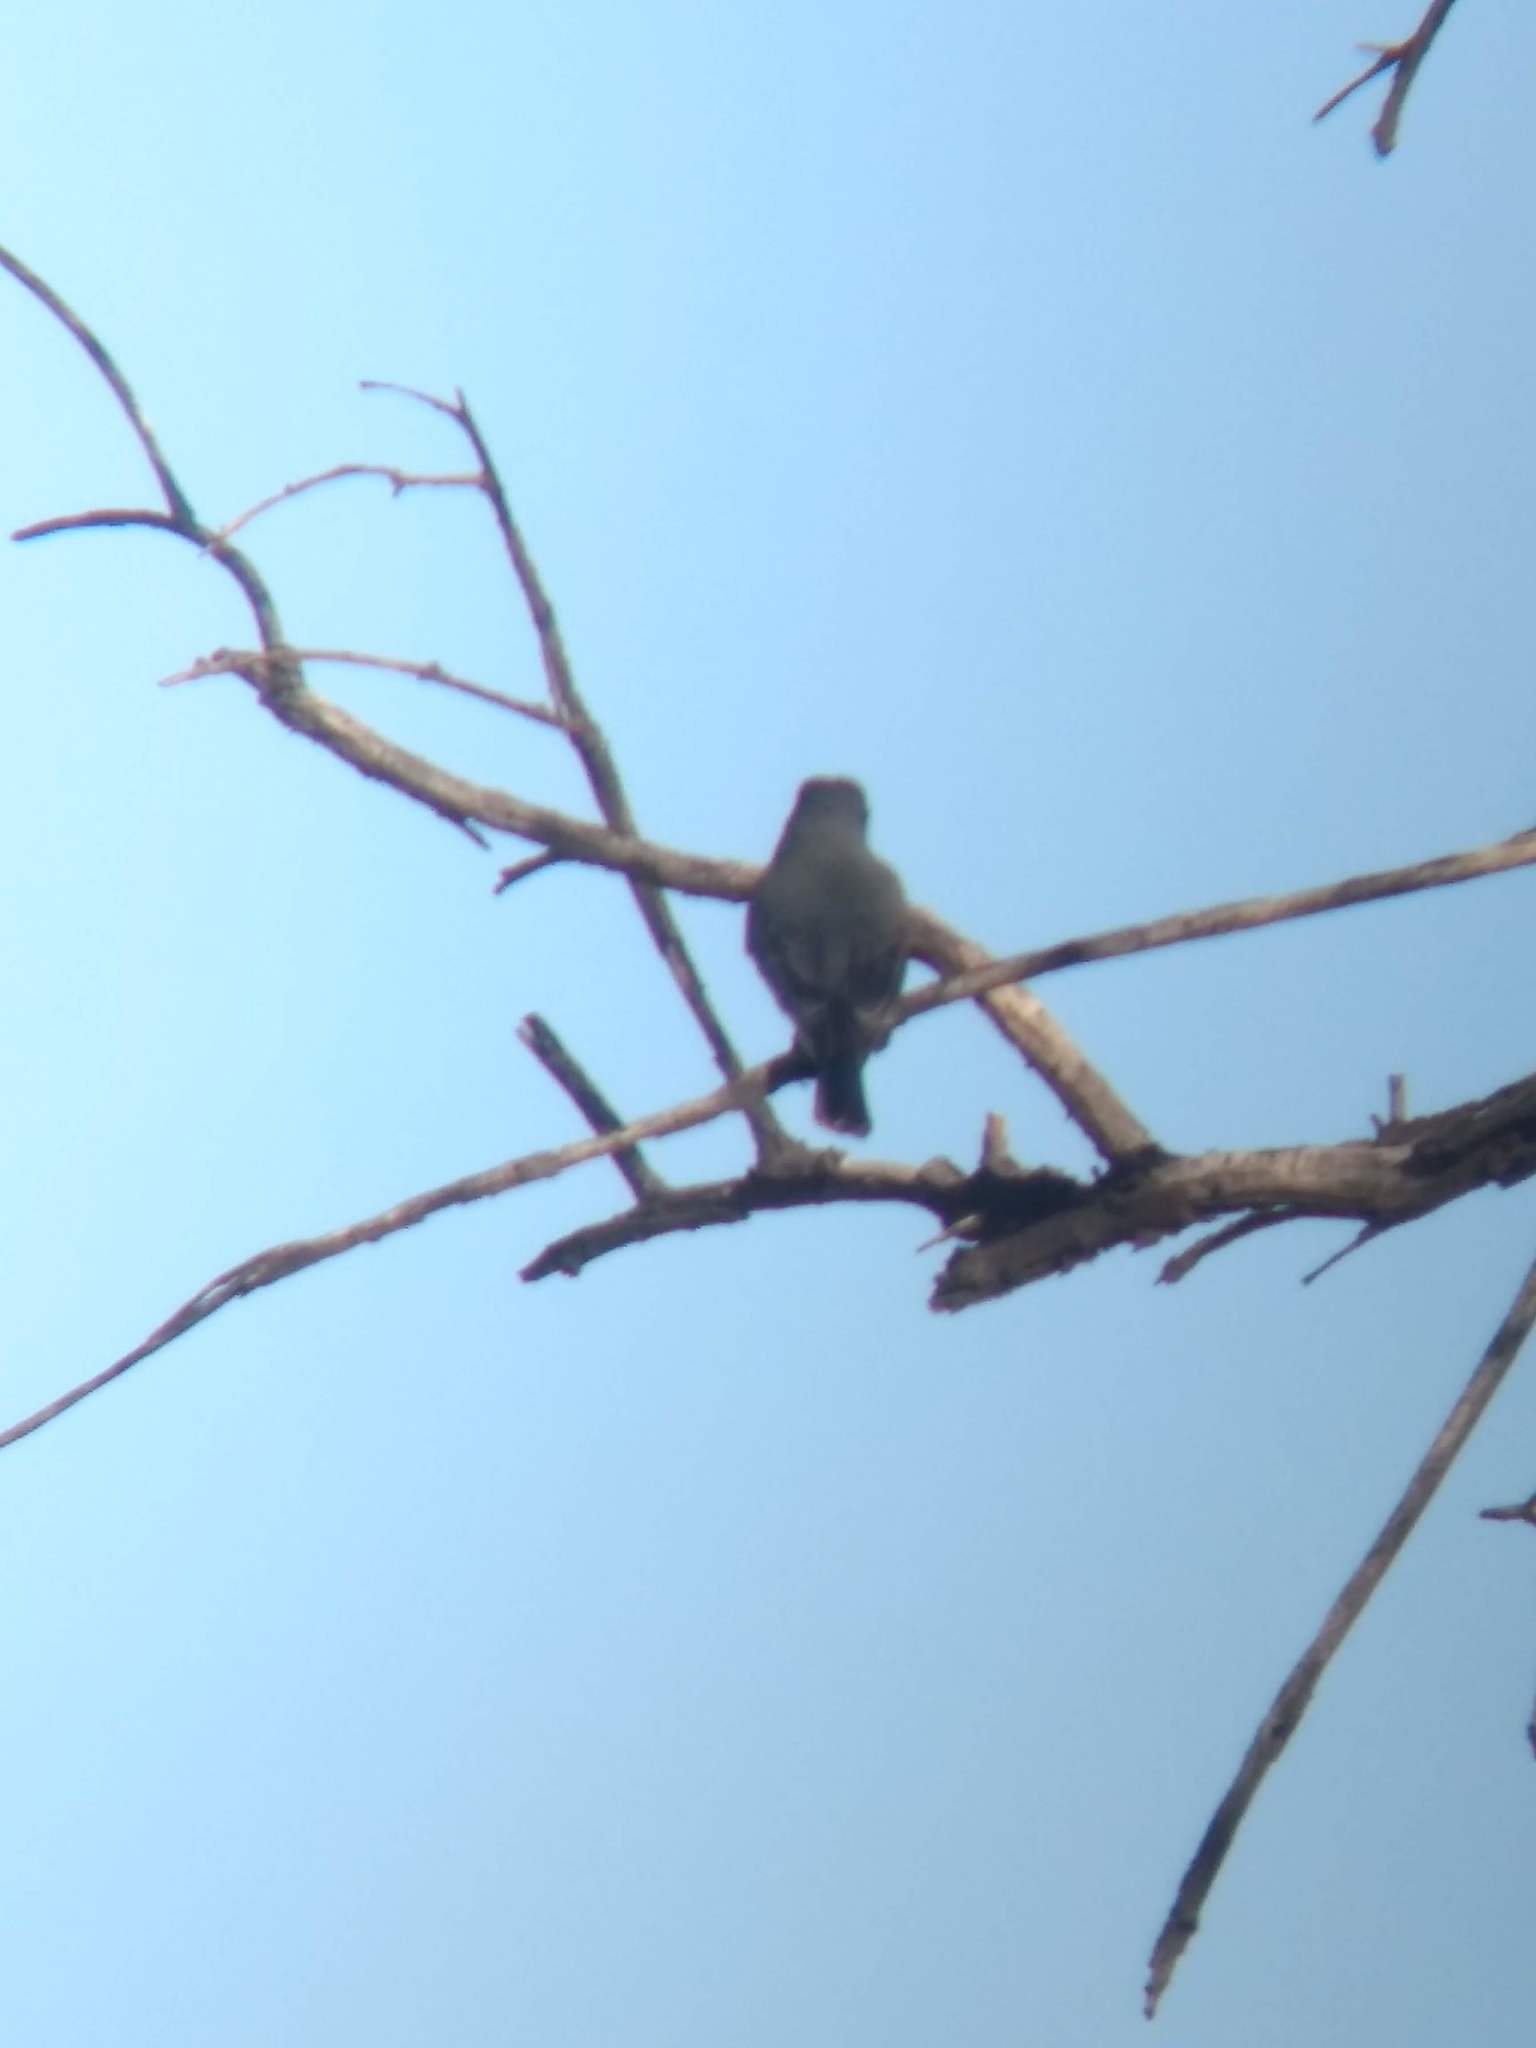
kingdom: Animalia
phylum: Chordata
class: Aves
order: Passeriformes
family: Tyrannidae
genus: Tyrannus
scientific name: Tyrannus vociferans
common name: Cassin's kingbird
